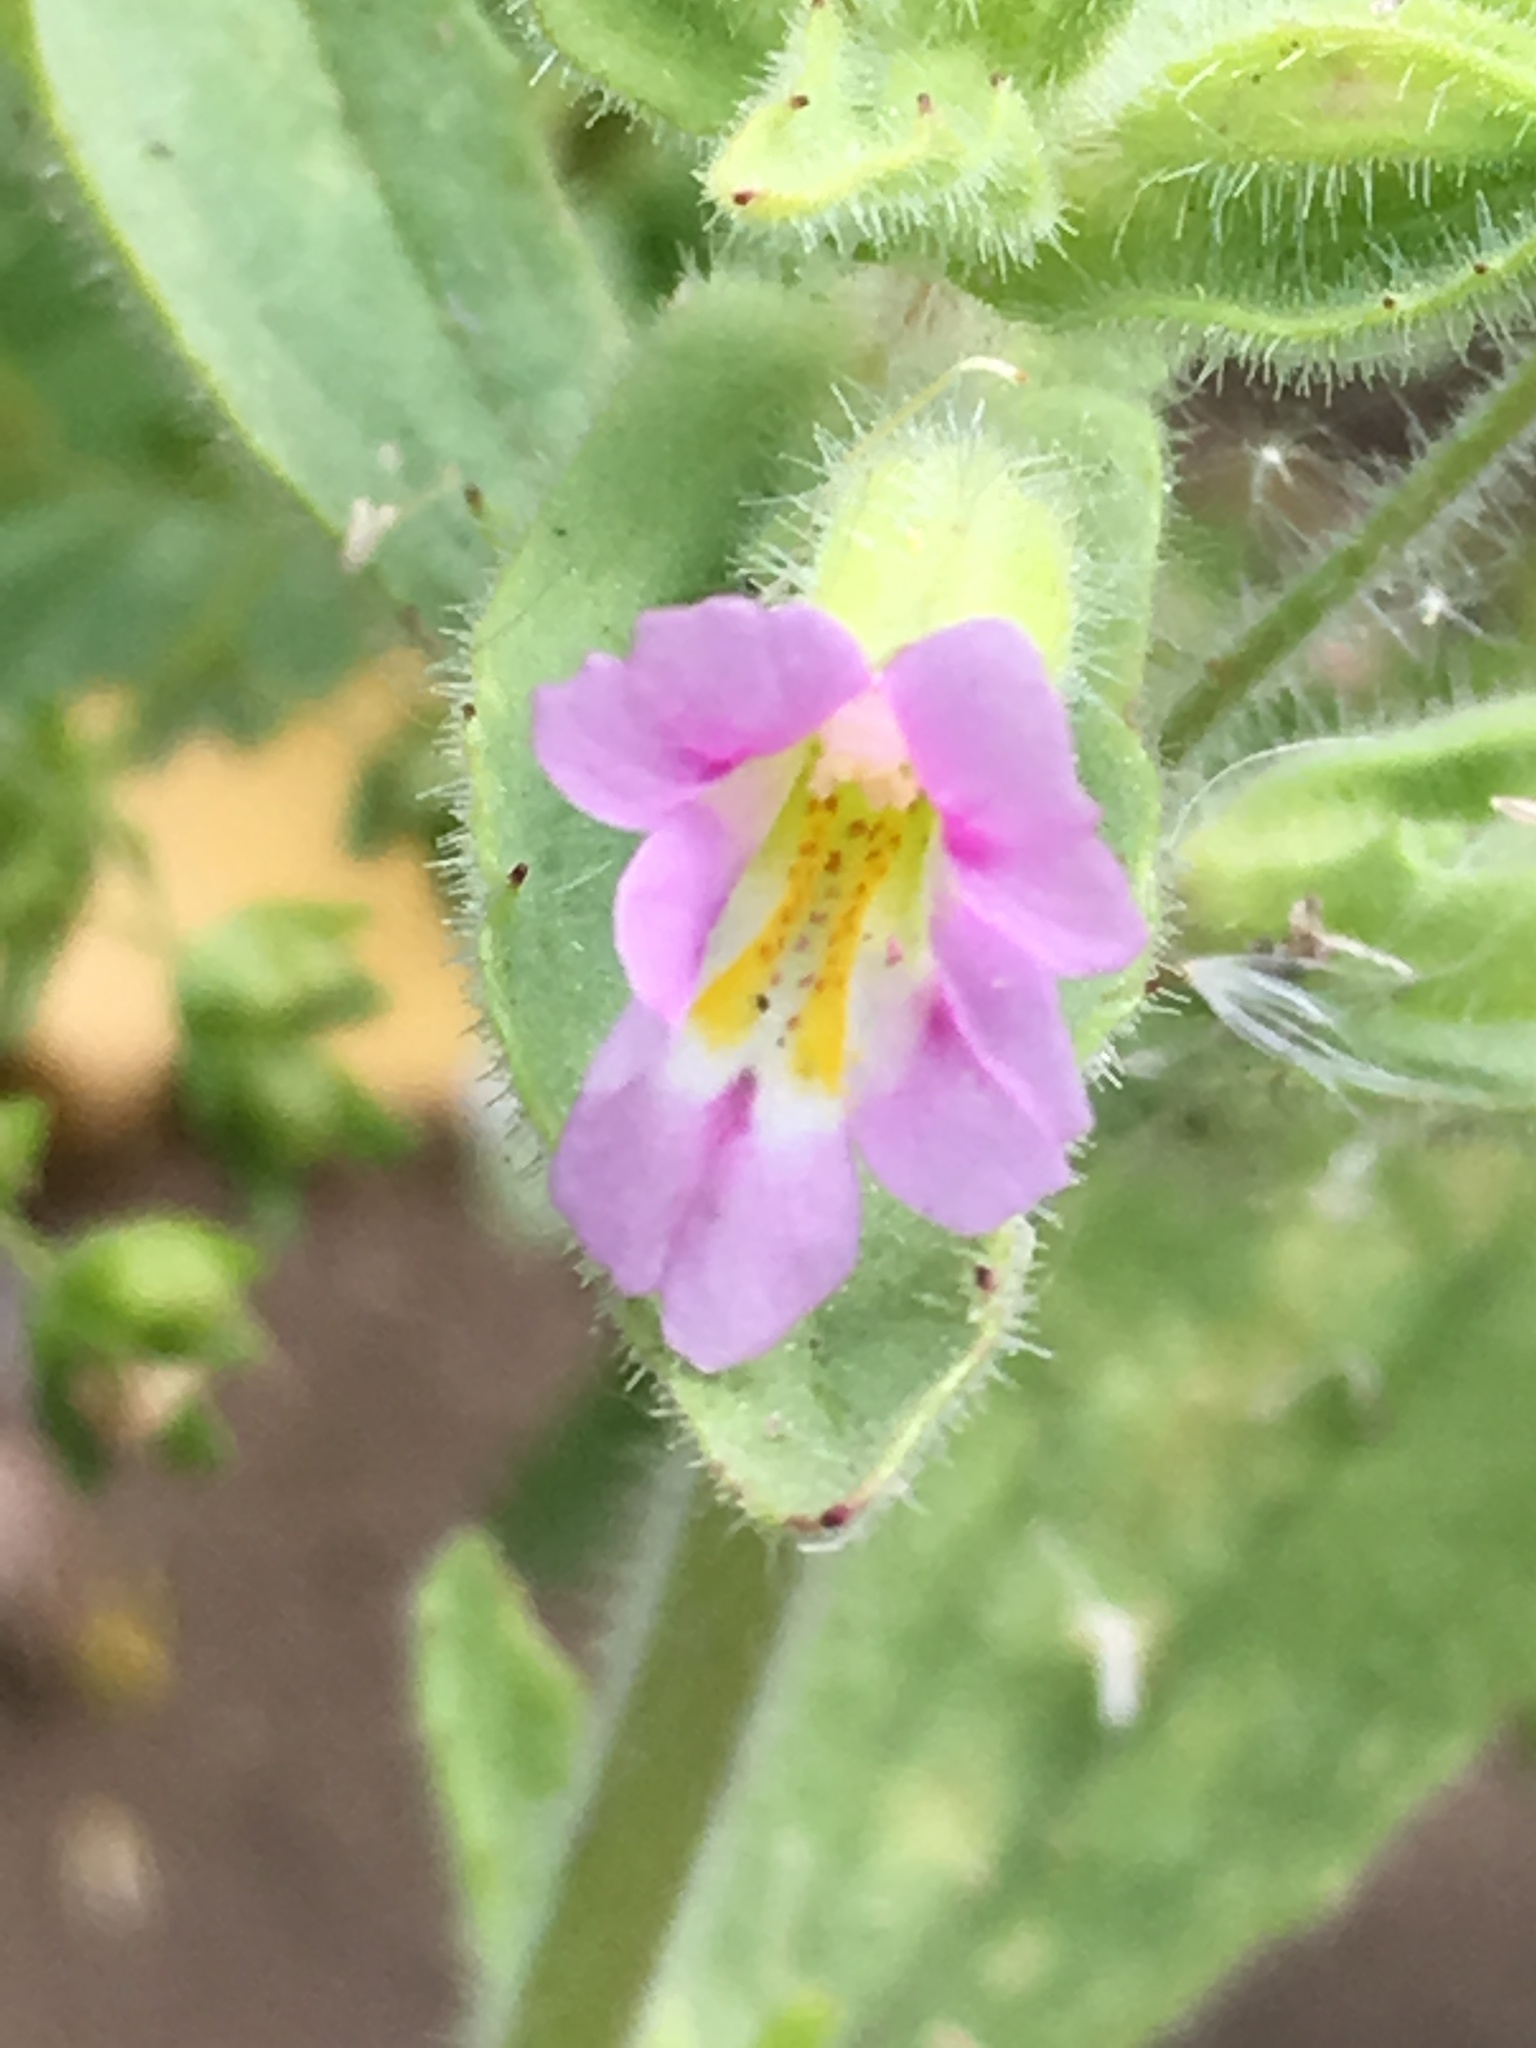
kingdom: Plantae
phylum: Tracheophyta
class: Magnoliopsida
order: Lamiales
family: Phrymaceae
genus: Erythranthe
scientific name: Erythranthe parishii
